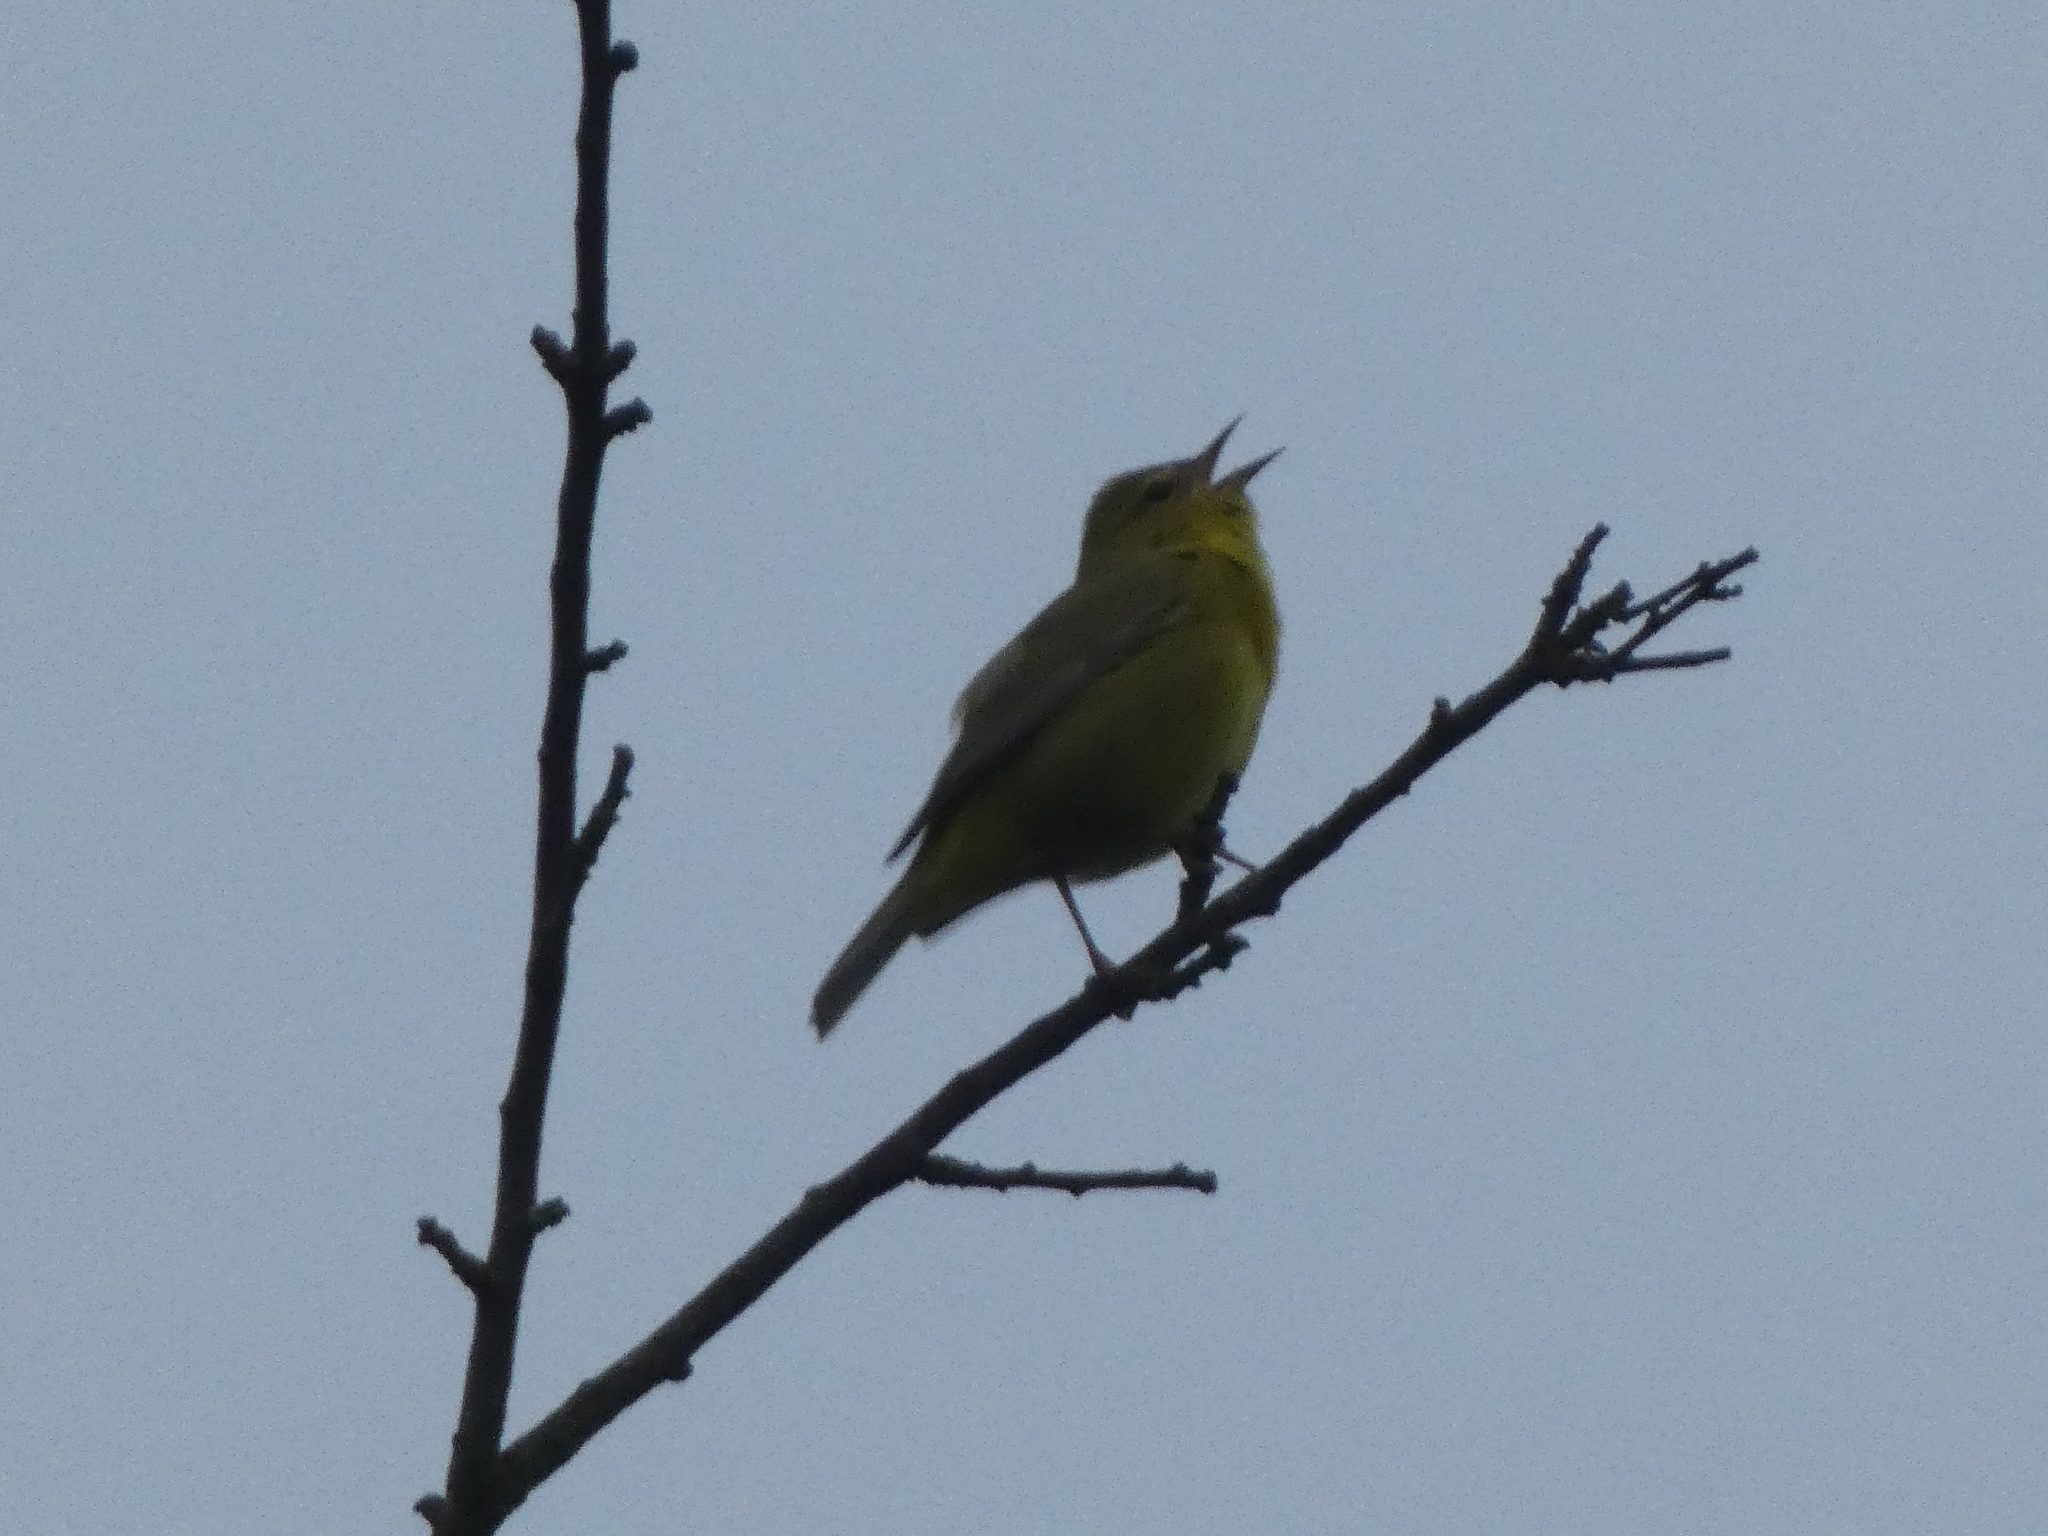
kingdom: Animalia
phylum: Chordata
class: Aves
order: Passeriformes
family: Parulidae
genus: Leiothlypis
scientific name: Leiothlypis celata
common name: Orange-crowned warbler
